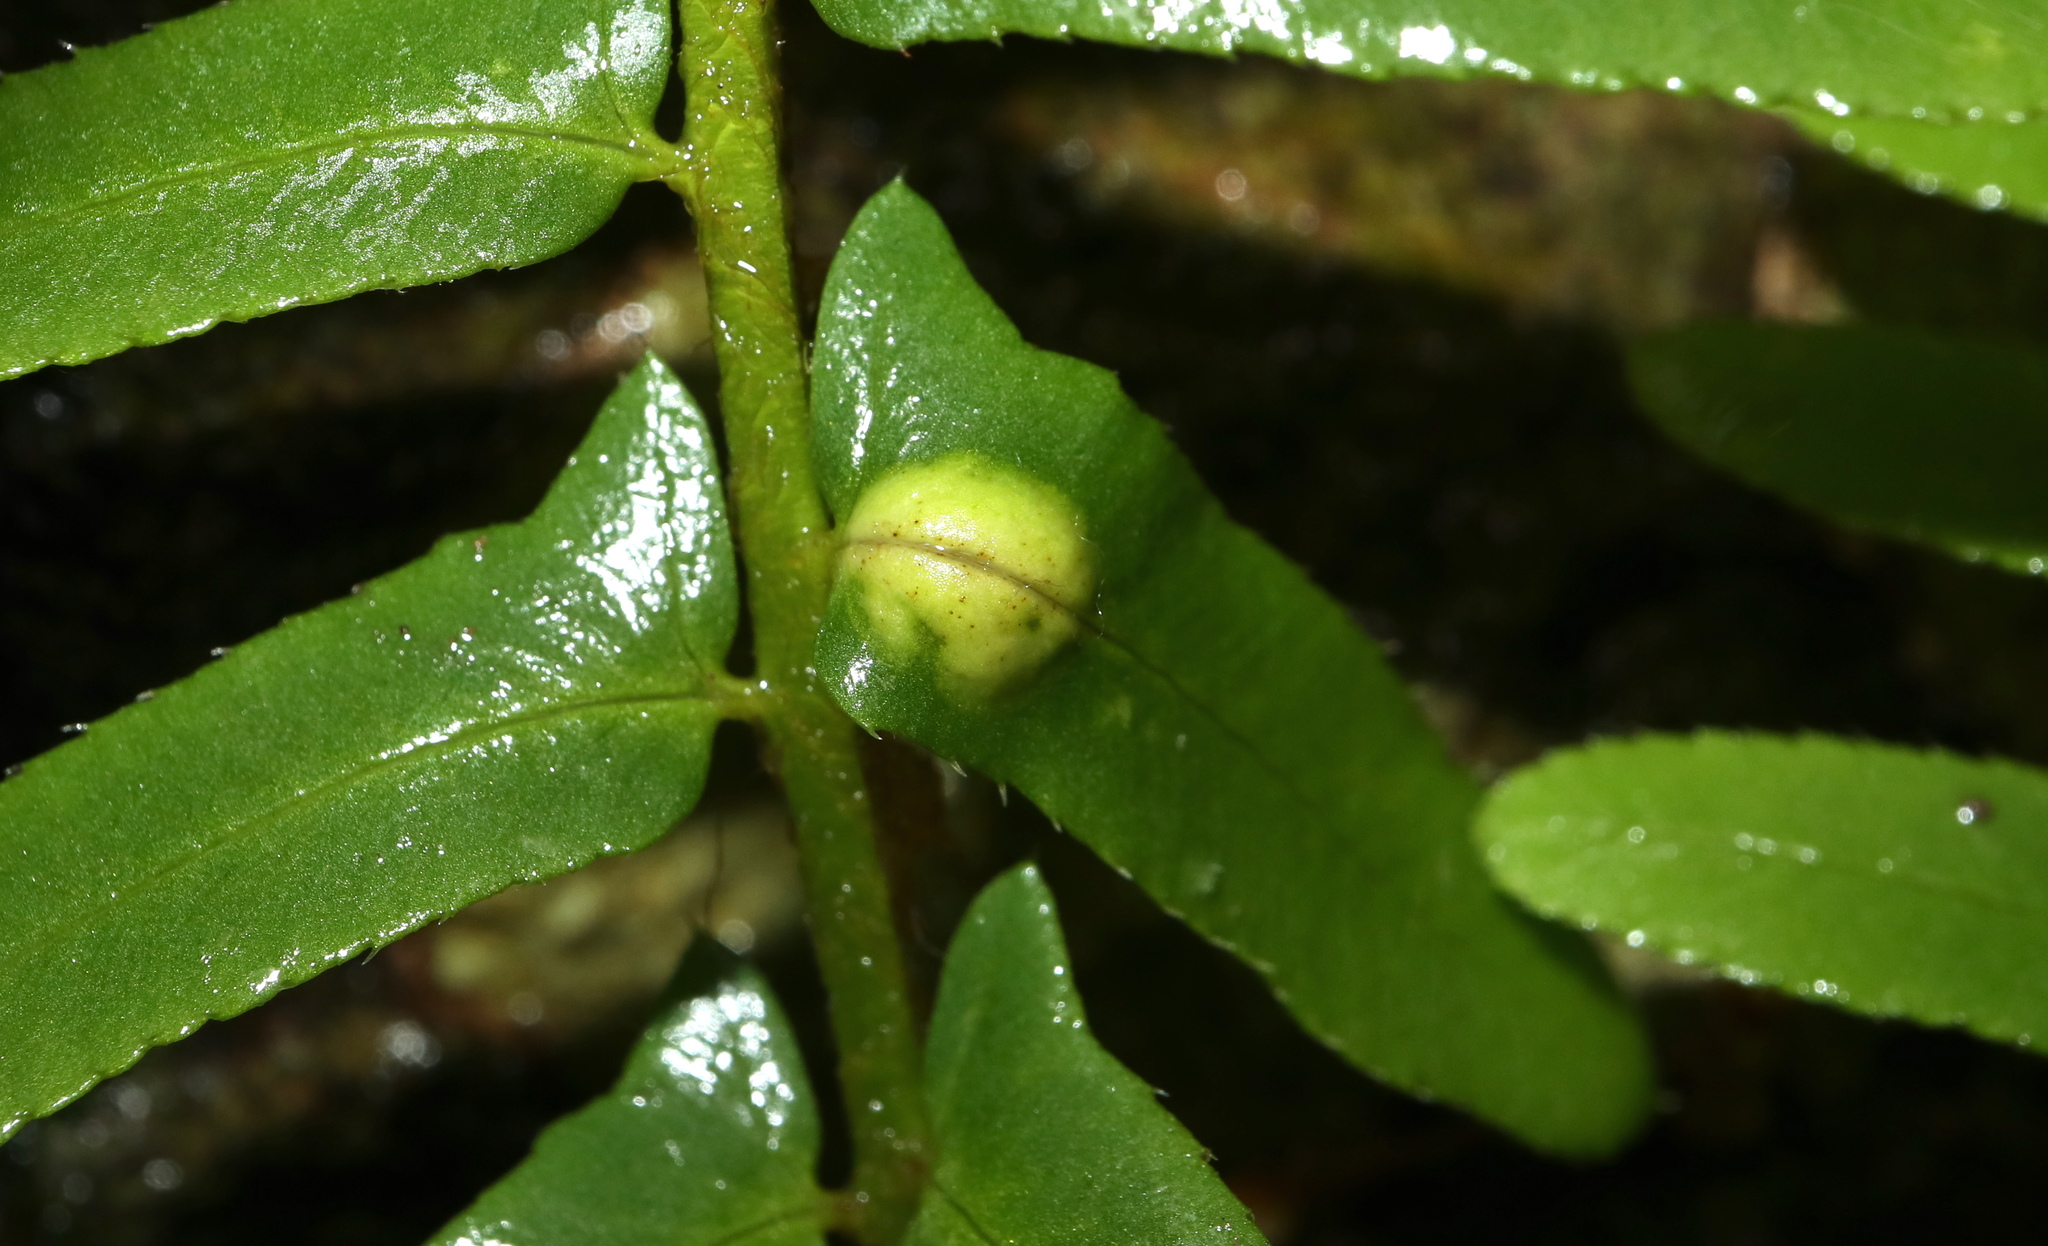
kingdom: Fungi
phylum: Ascomycota
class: Taphrinomycetes
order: Taphrinales
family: Taphrinaceae
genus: Taphrina
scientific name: Taphrina polystichi
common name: Christmas fern leaf curl
